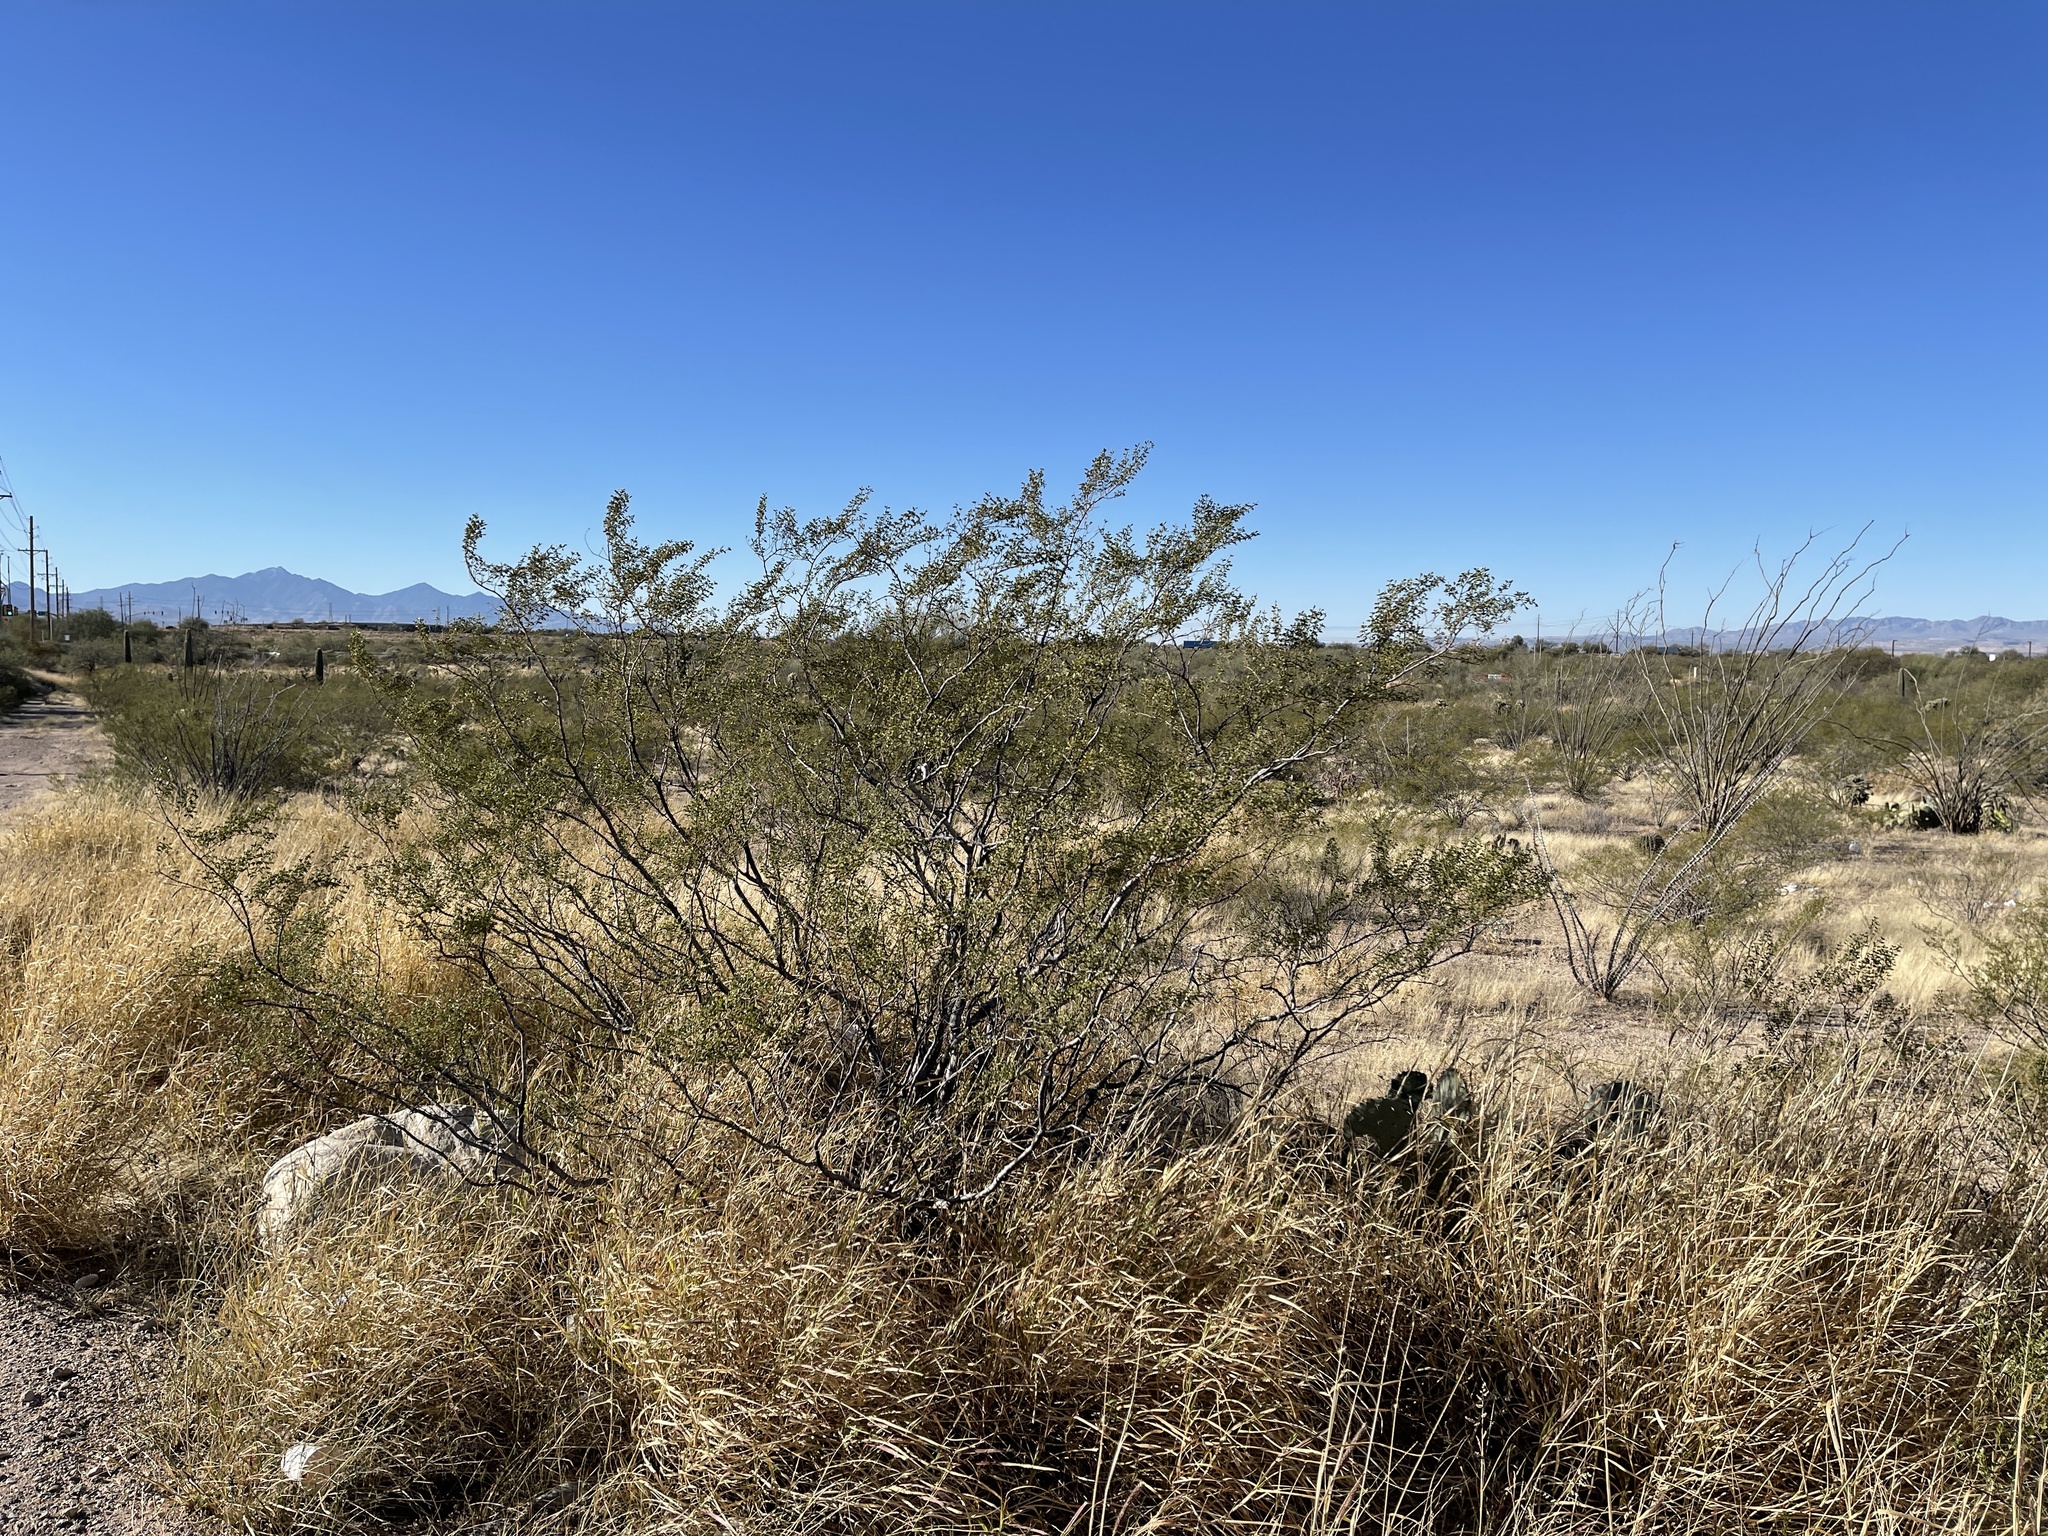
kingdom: Plantae
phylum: Tracheophyta
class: Magnoliopsida
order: Zygophyllales
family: Zygophyllaceae
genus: Larrea
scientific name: Larrea tridentata
